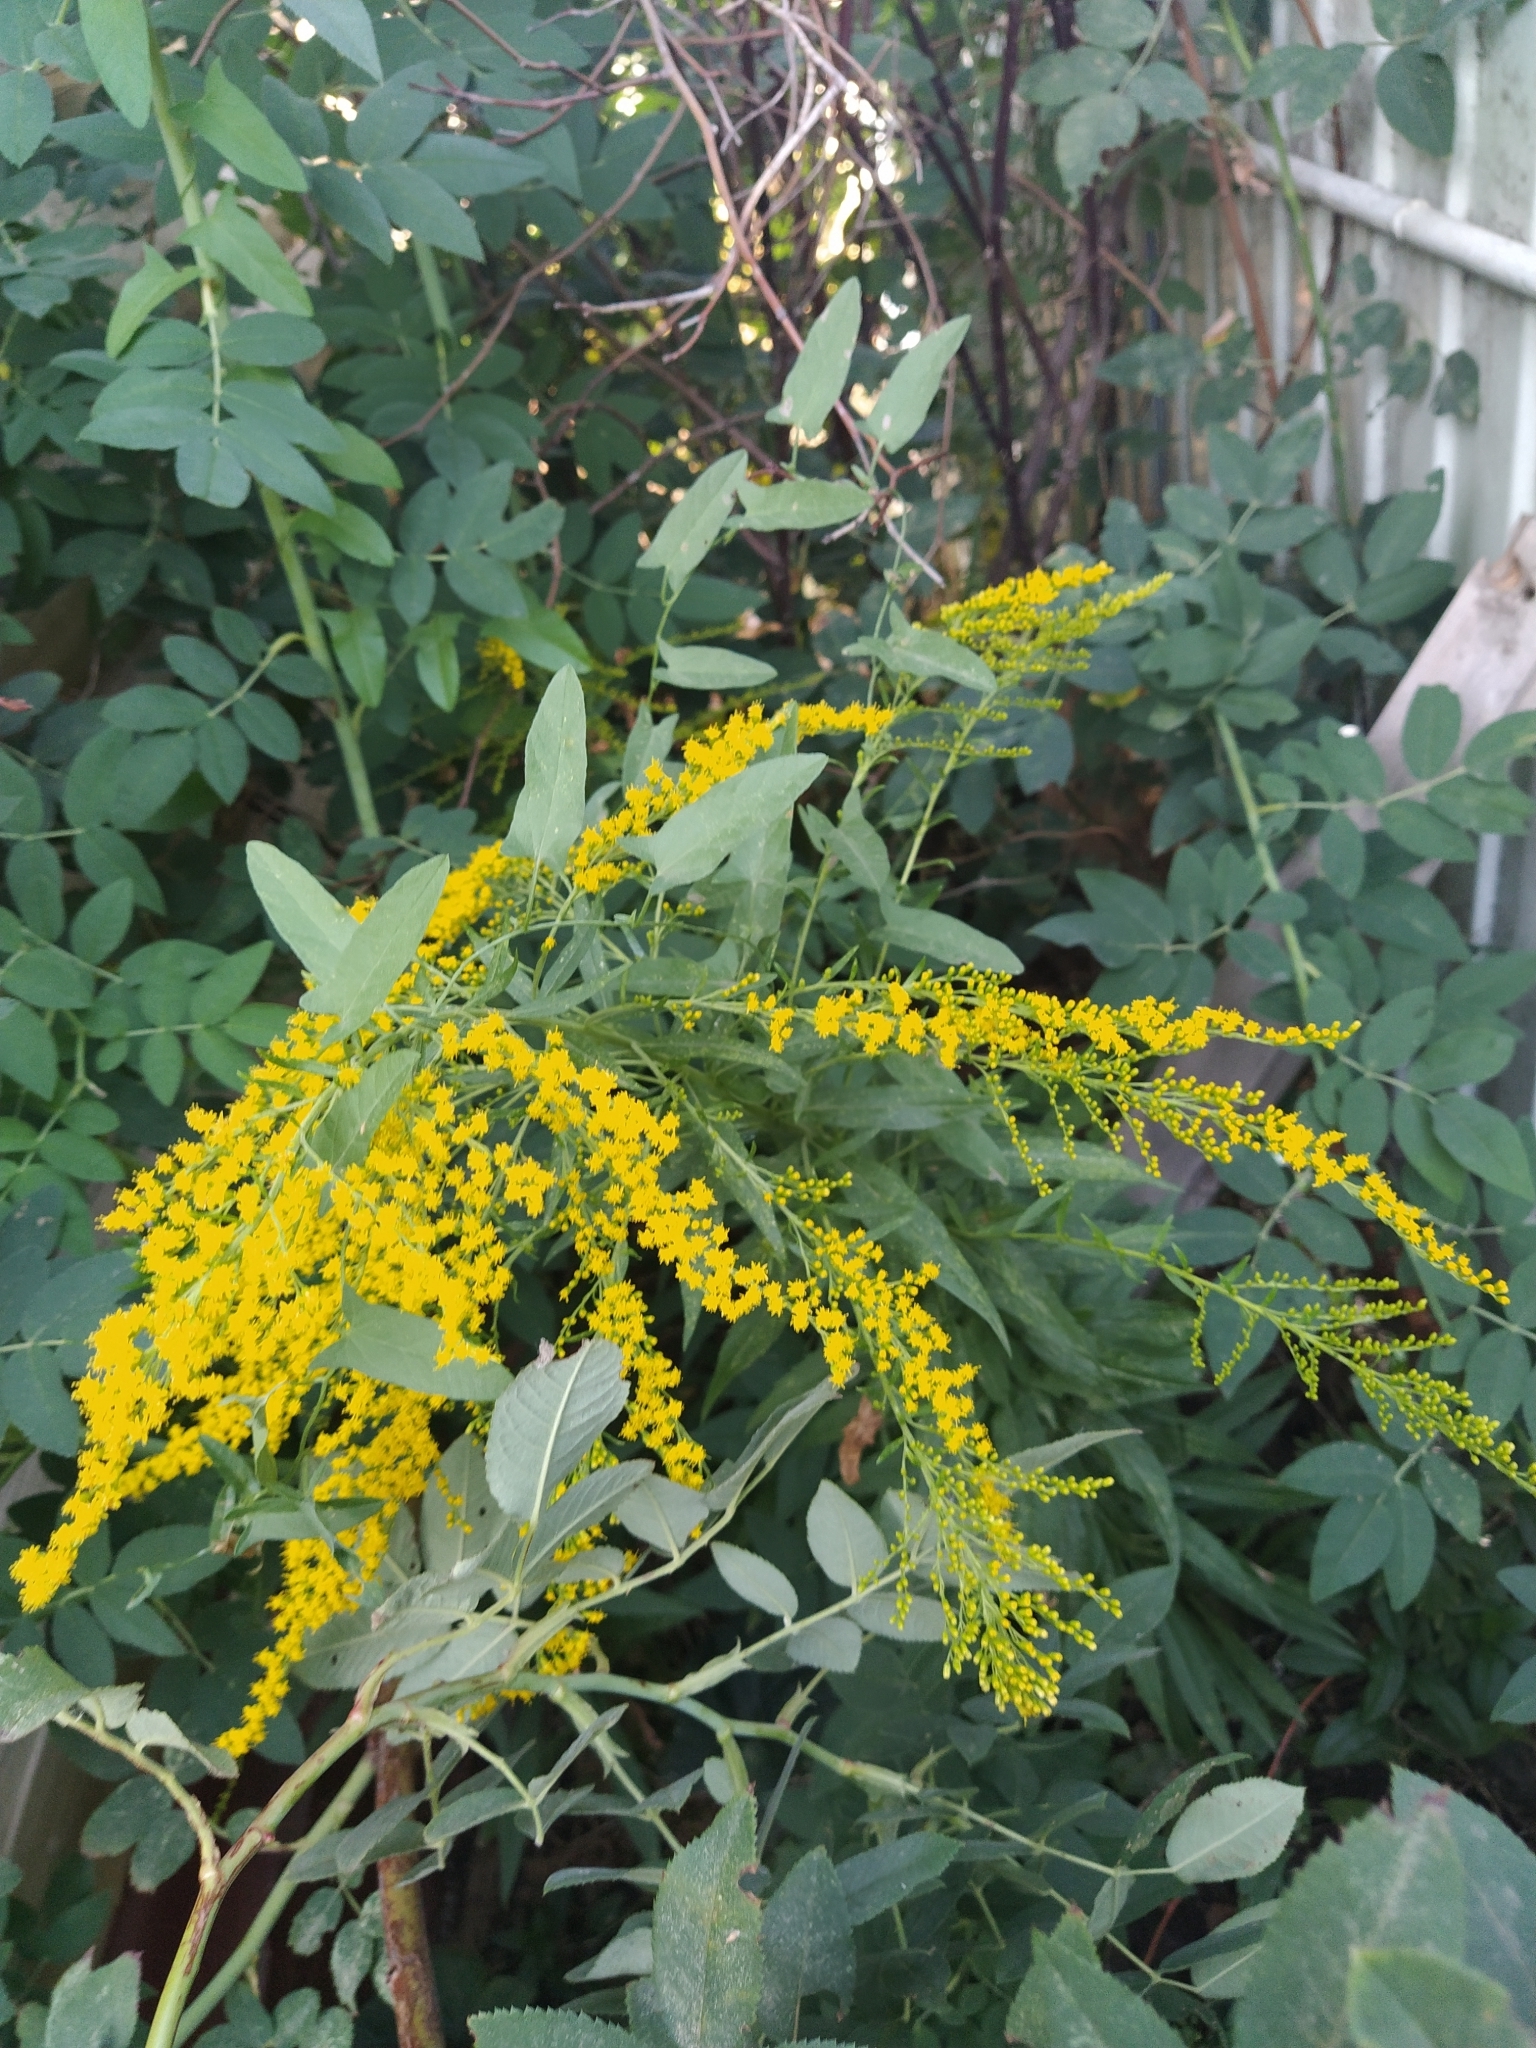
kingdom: Plantae
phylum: Tracheophyta
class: Magnoliopsida
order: Asterales
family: Asteraceae
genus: Solidago
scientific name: Solidago canadensis
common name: Canada goldenrod
